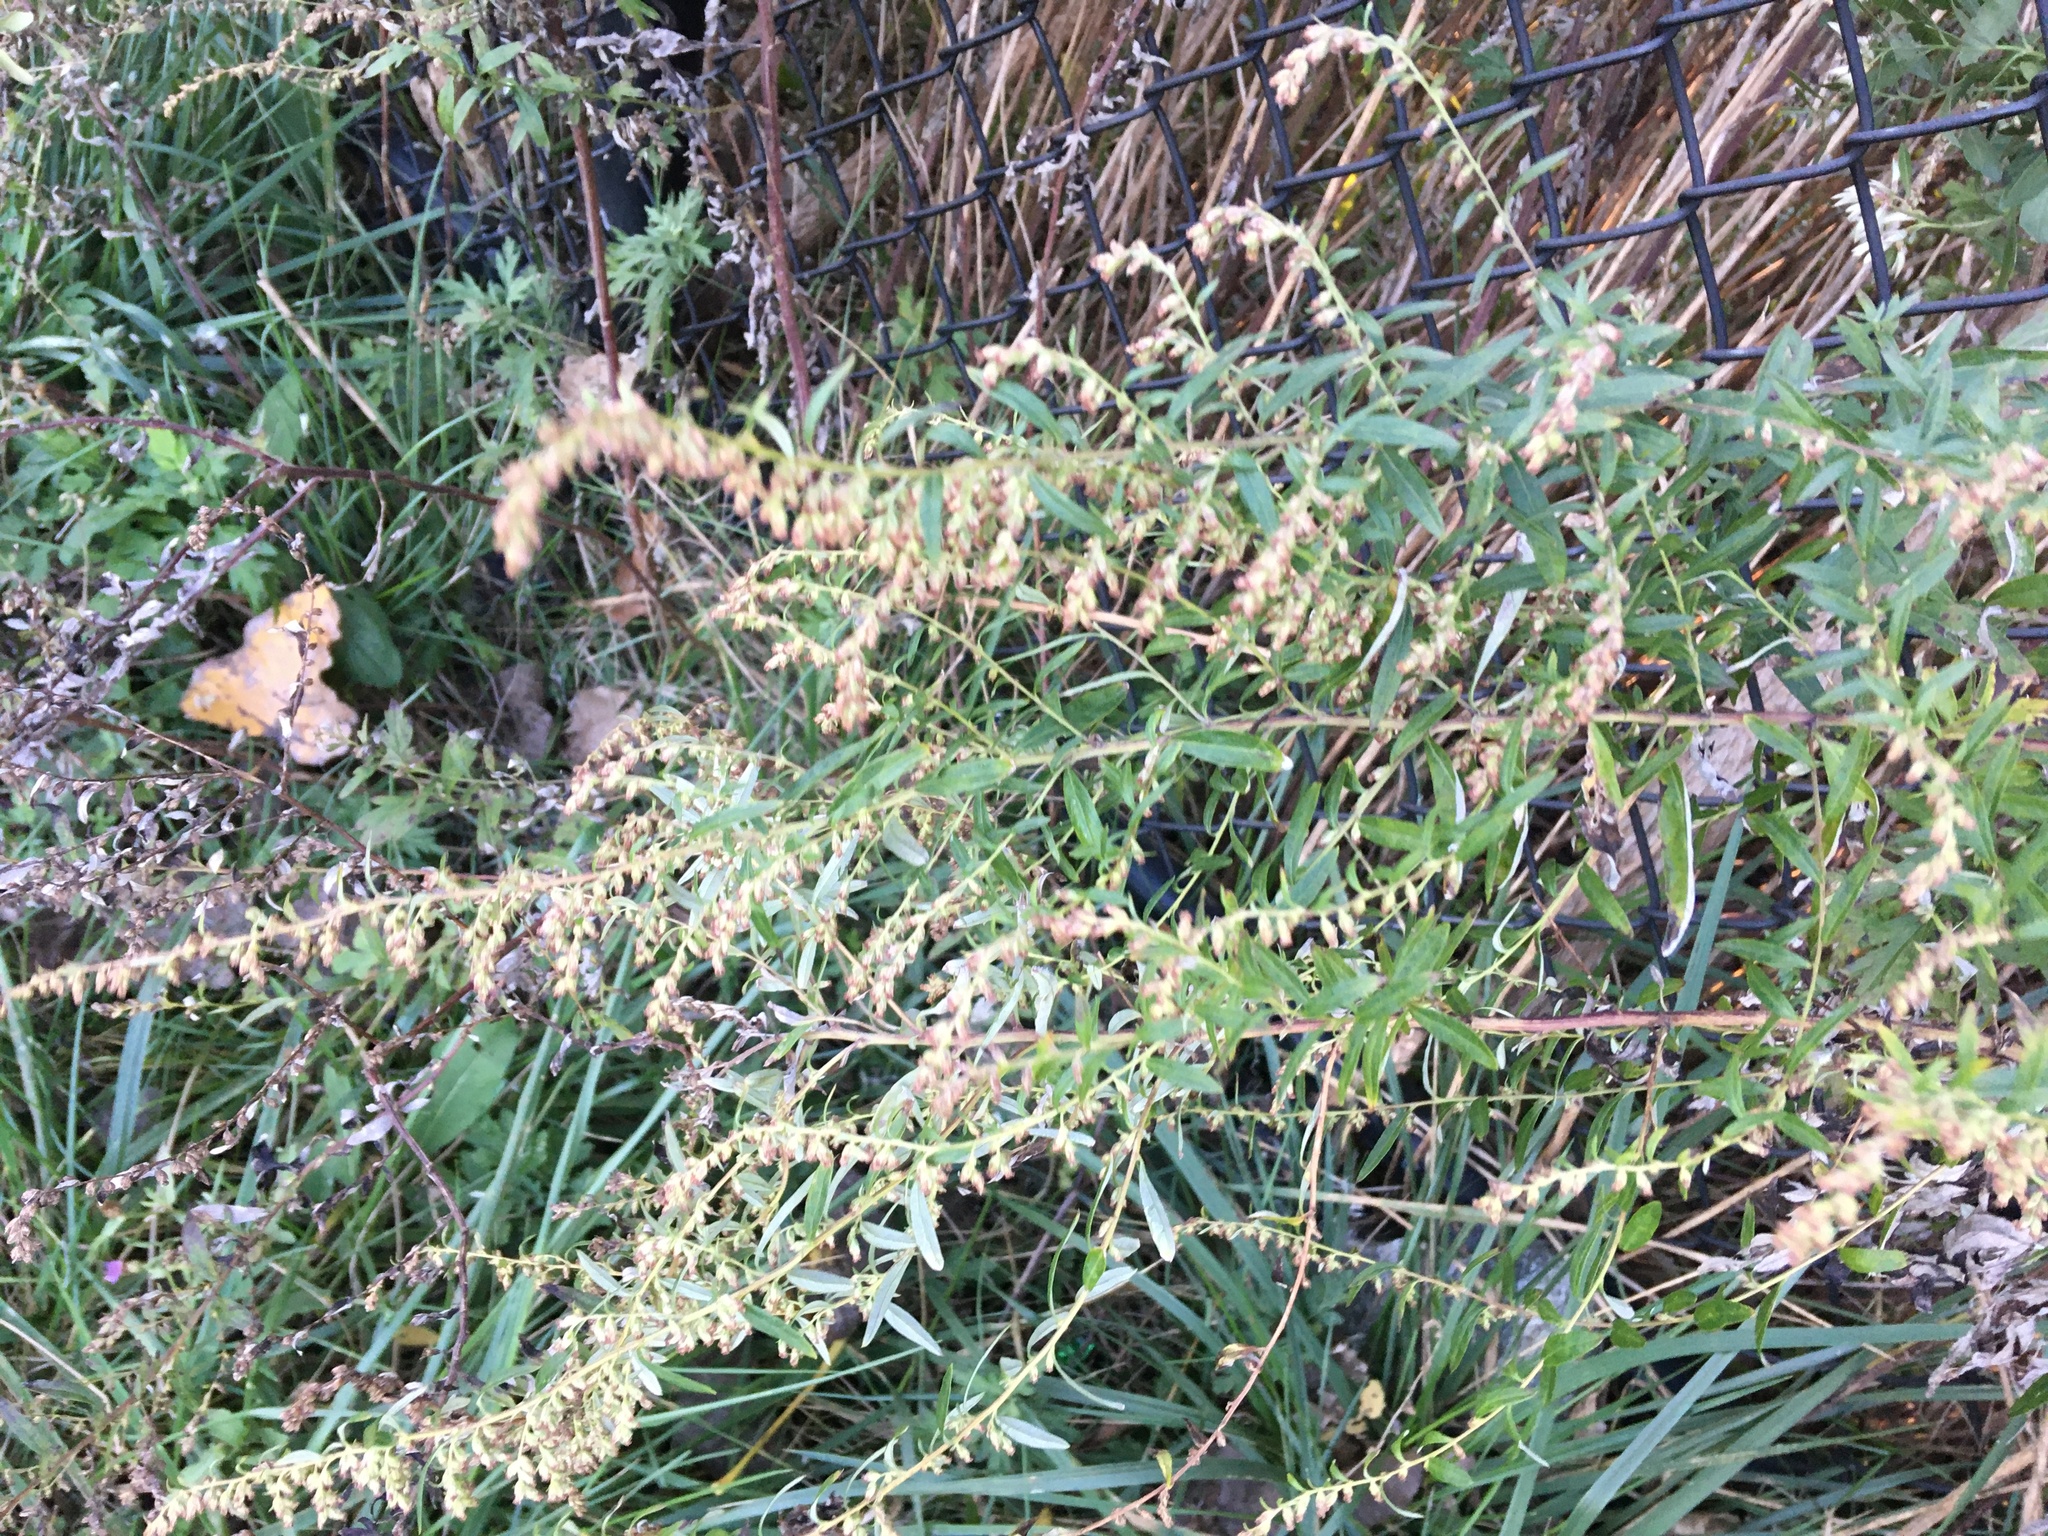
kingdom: Plantae
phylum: Tracheophyta
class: Magnoliopsida
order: Asterales
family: Asteraceae
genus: Artemisia
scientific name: Artemisia vulgaris
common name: Mugwort
